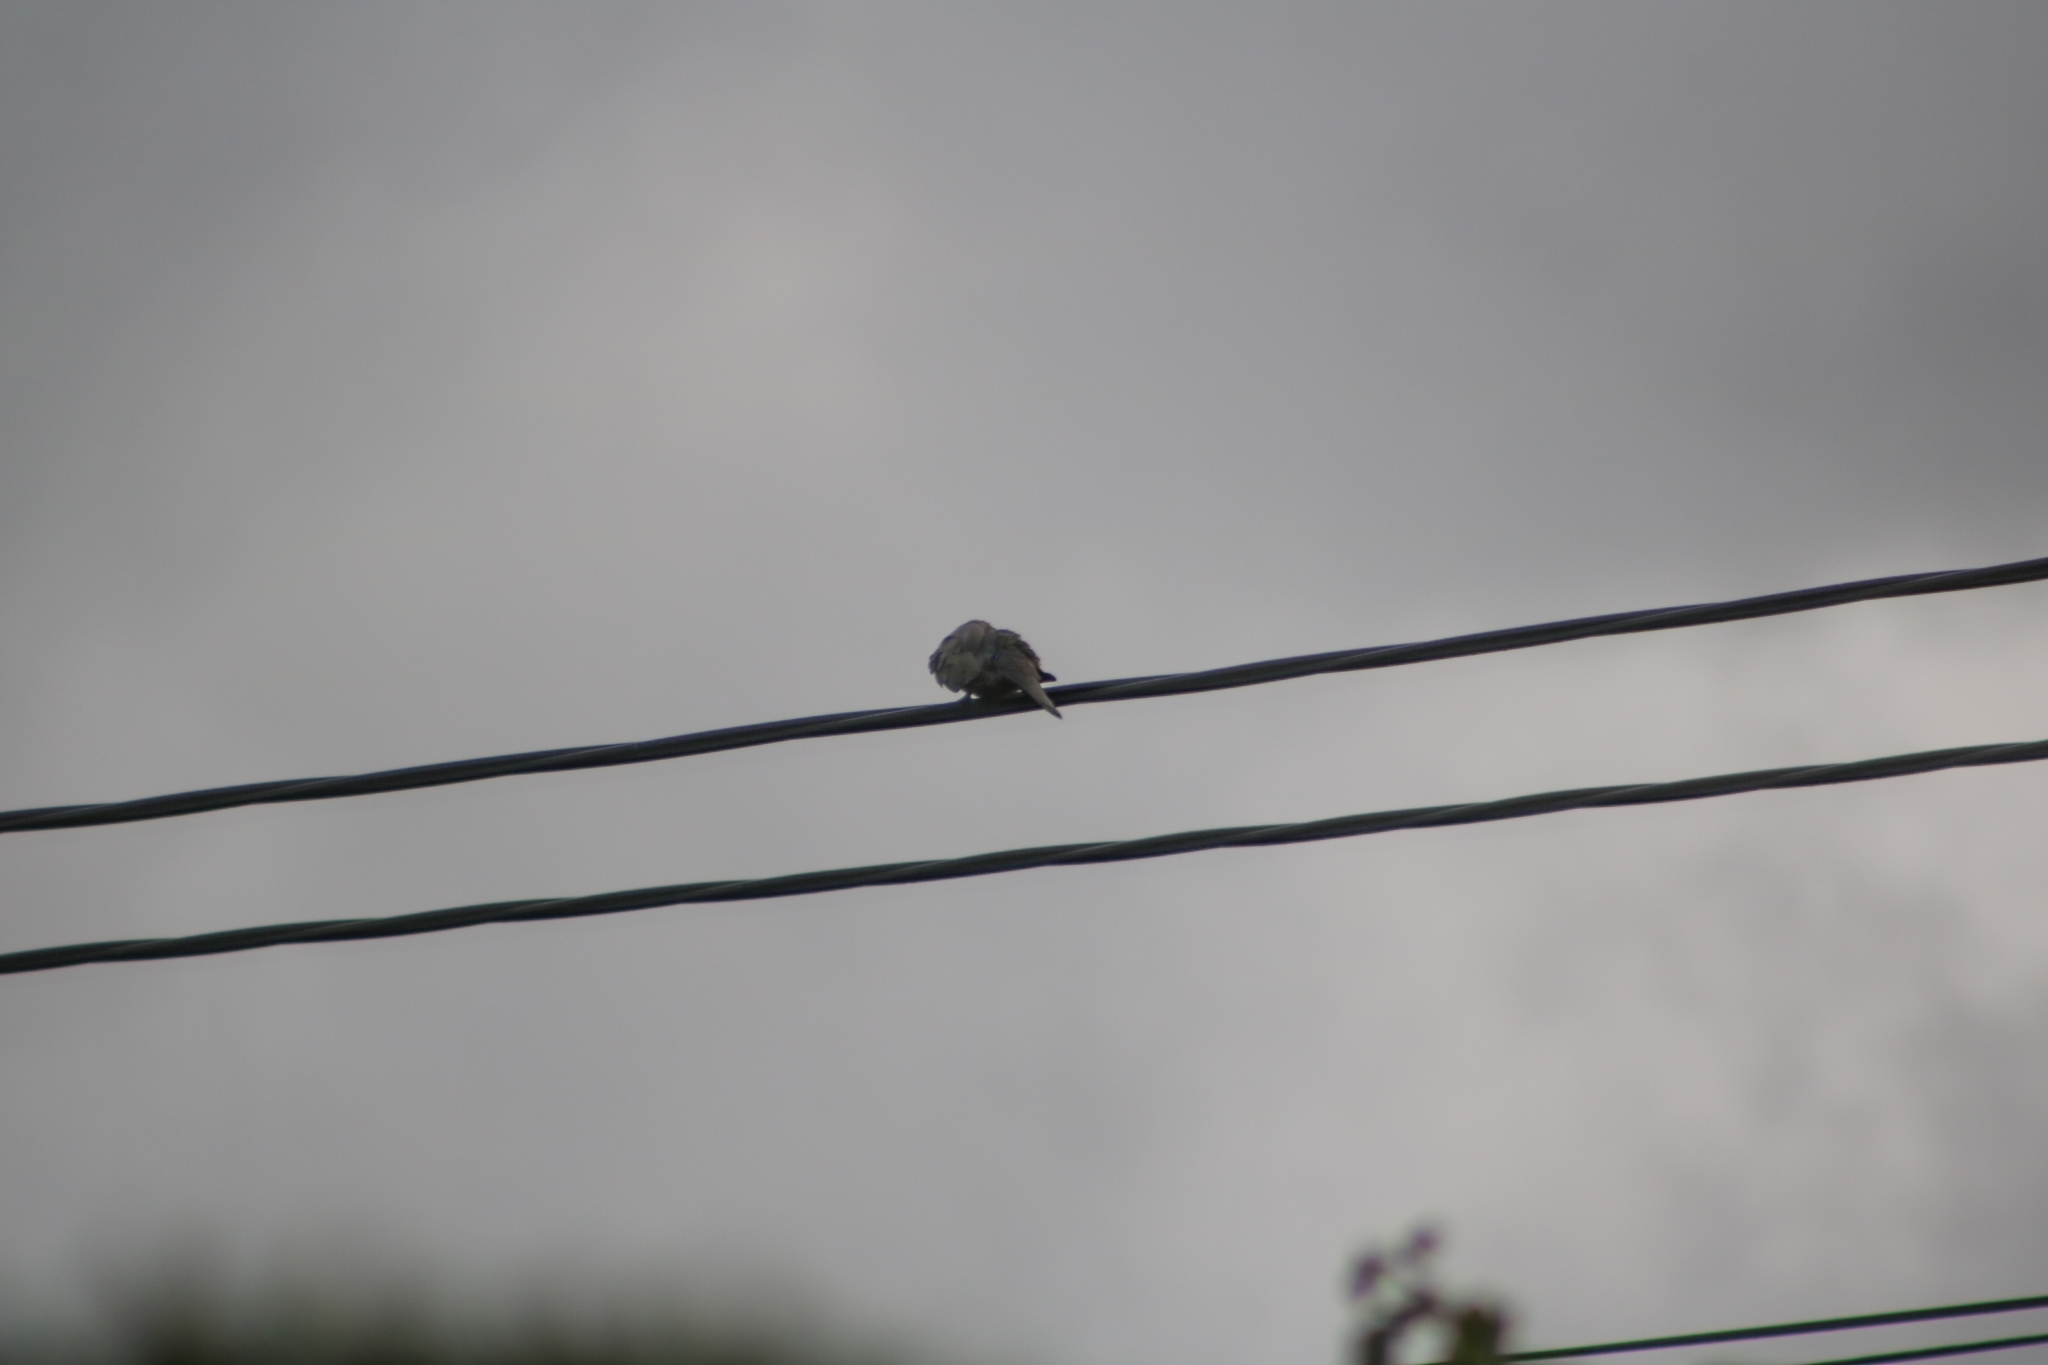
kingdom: Animalia
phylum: Chordata
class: Aves
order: Columbiformes
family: Columbidae
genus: Streptopelia
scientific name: Streptopelia decaocto
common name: Eurasian collared dove
